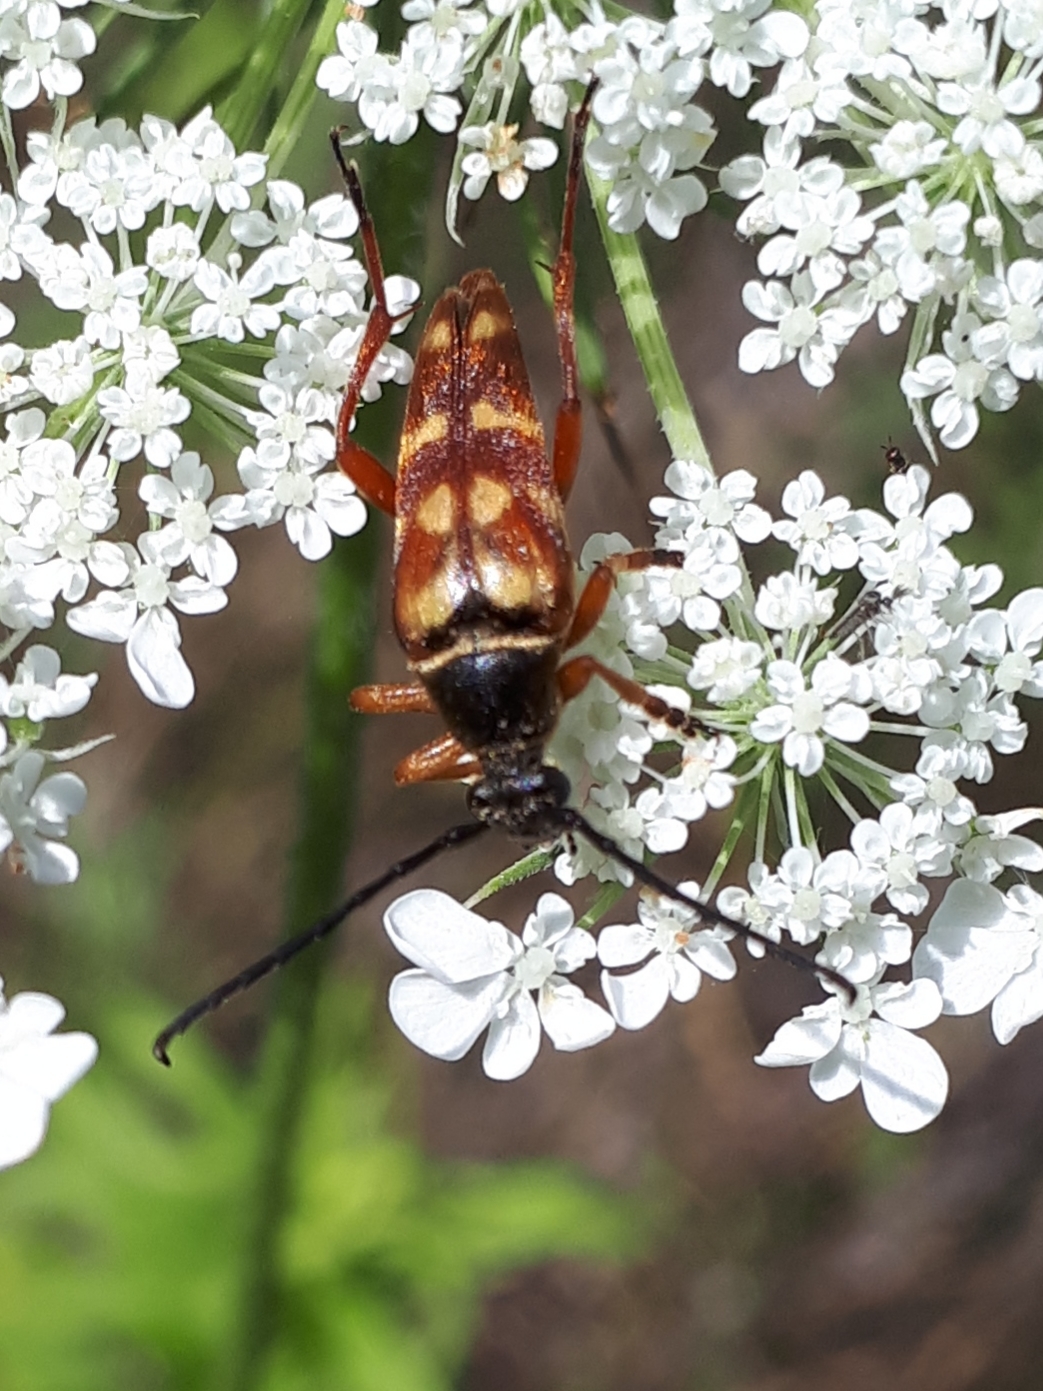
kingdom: Animalia
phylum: Arthropoda
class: Insecta
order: Coleoptera
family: Cerambycidae
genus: Typocerus
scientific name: Typocerus velutinus
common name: Banded longhorn beetle
